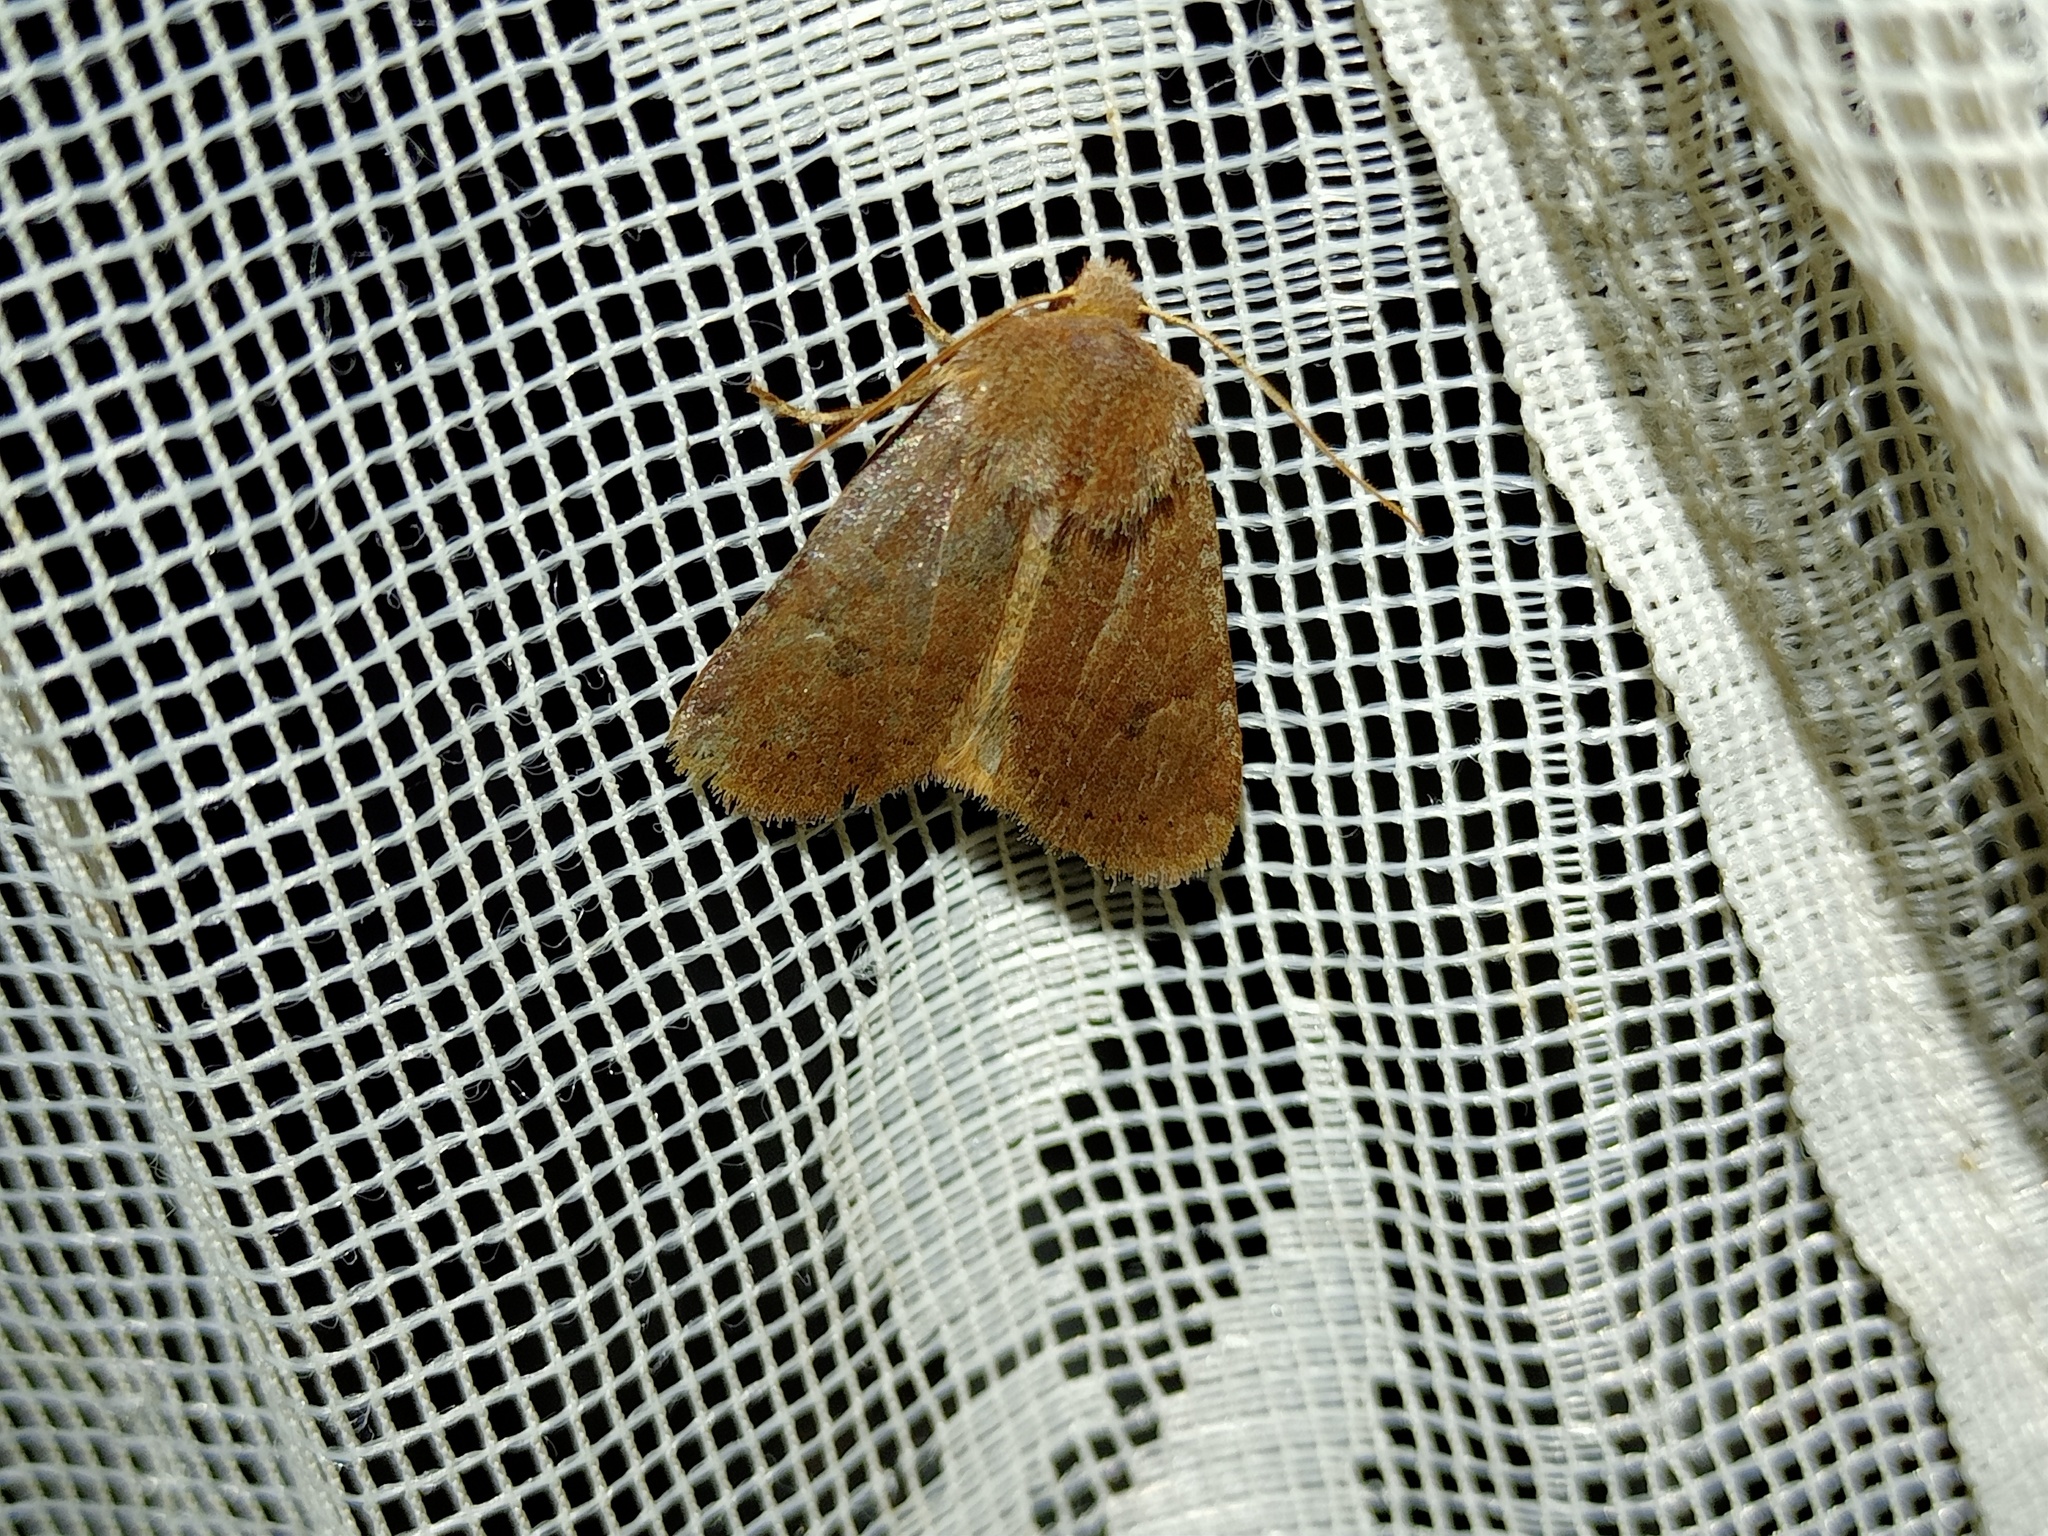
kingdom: Animalia
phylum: Arthropoda
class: Insecta
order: Lepidoptera
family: Noctuidae
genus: Conistra
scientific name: Conistra vaccinii
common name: Chestnut
